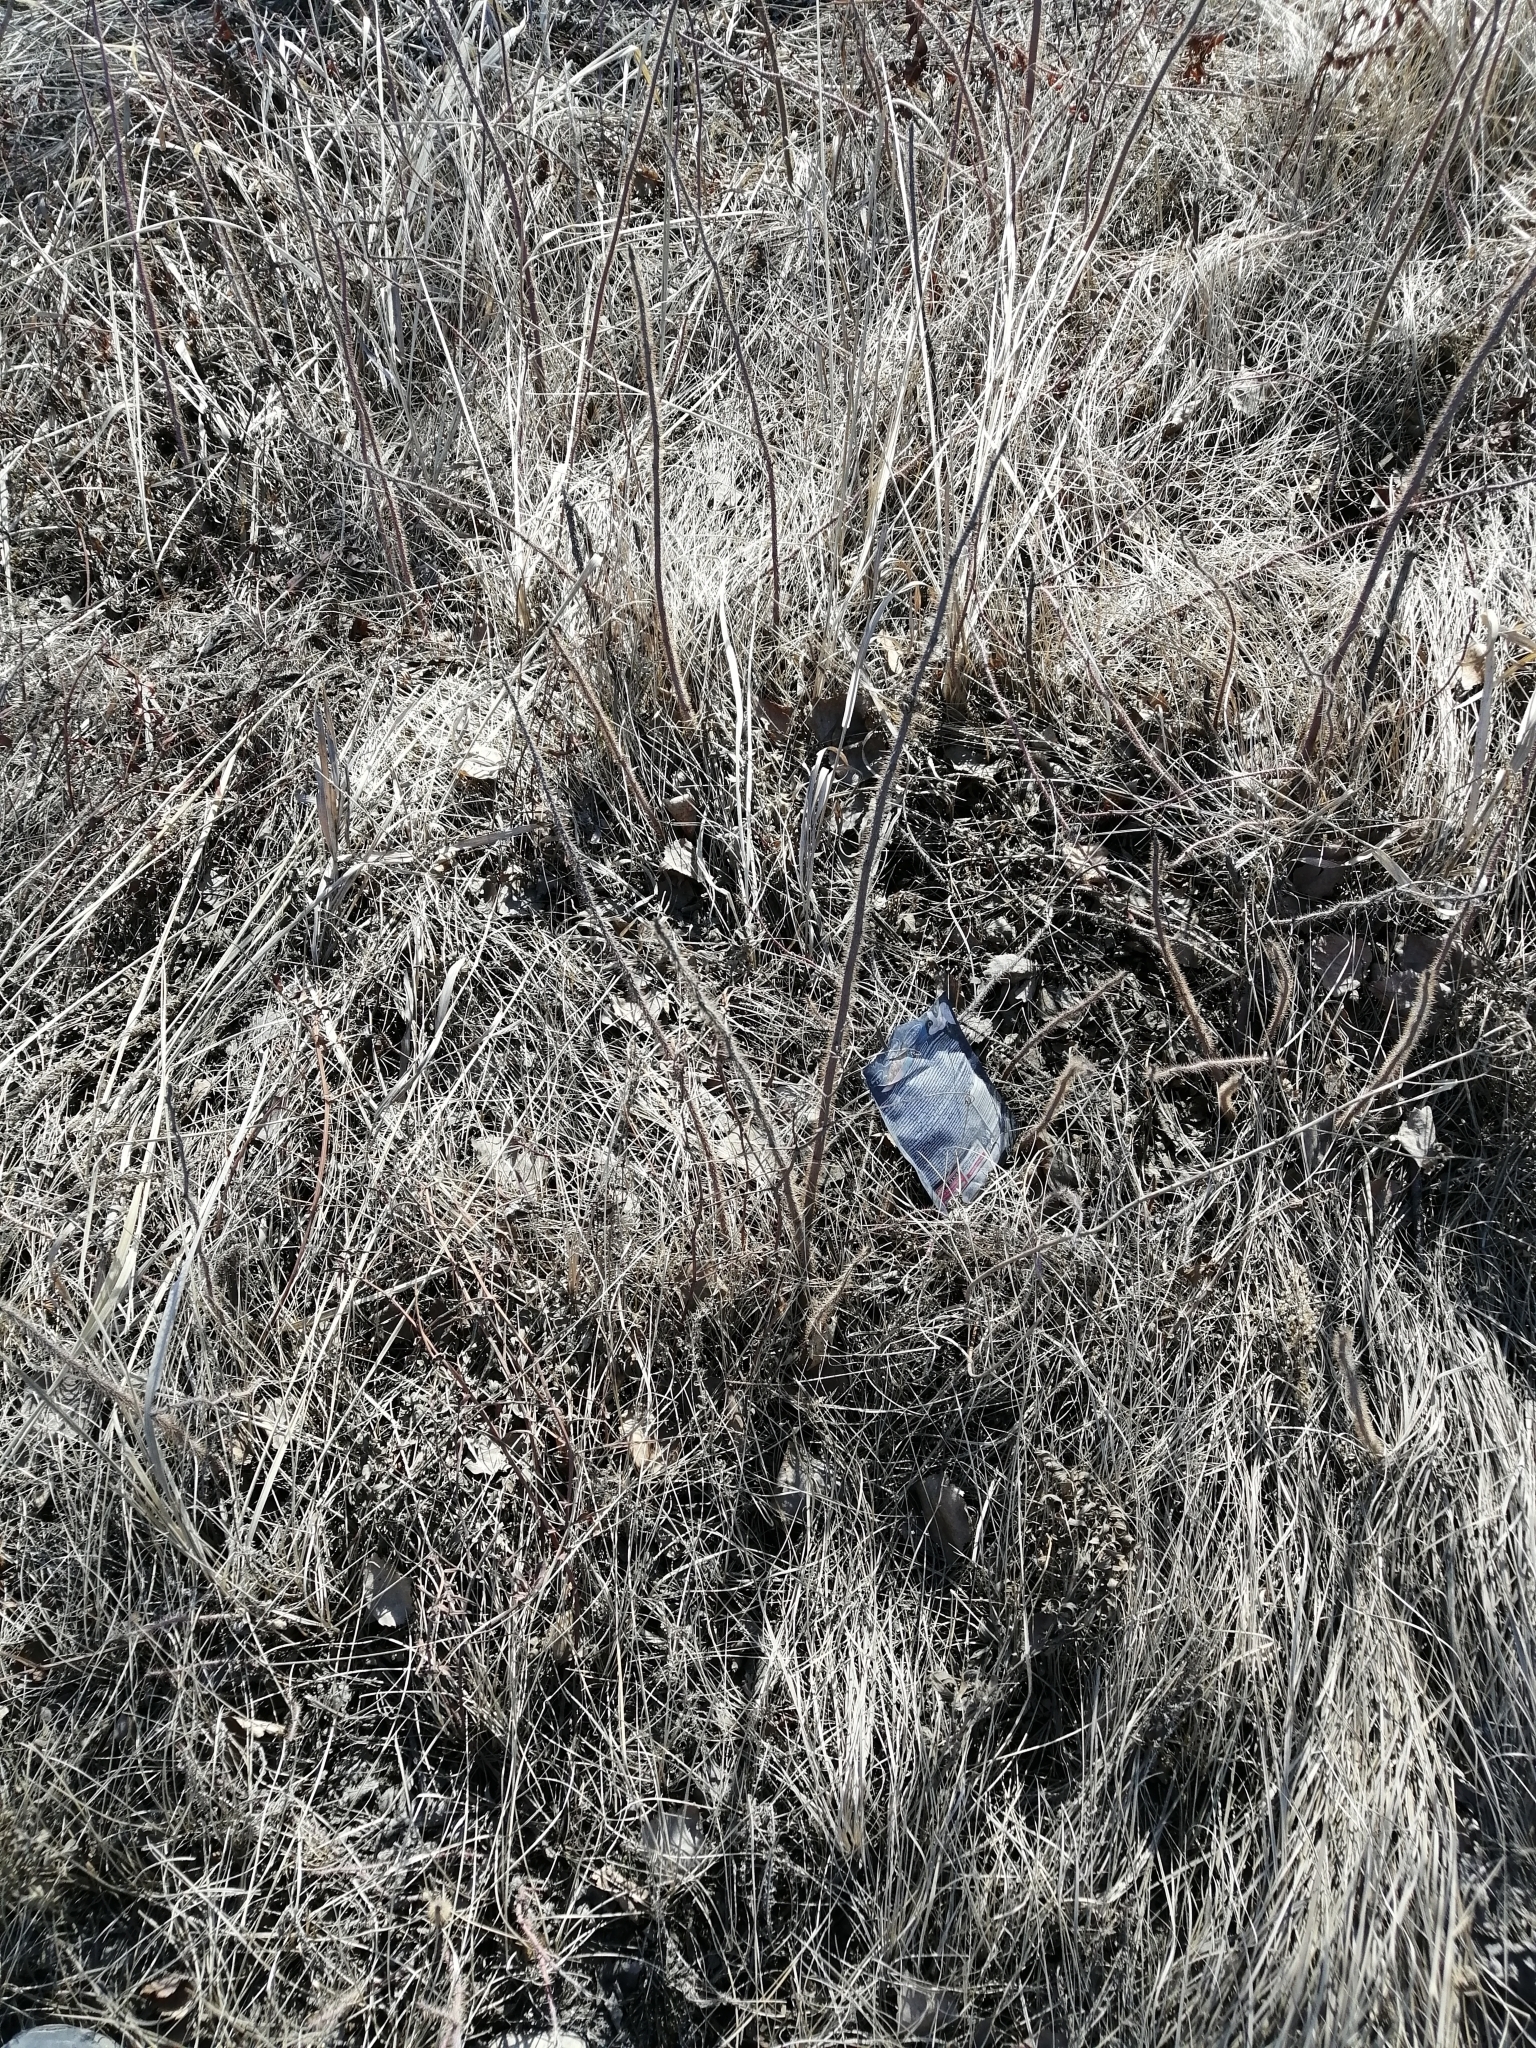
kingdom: Plantae
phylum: Tracheophyta
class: Magnoliopsida
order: Rosales
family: Rosaceae
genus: Rosa
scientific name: Rosa acicularis
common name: Prickly rose
